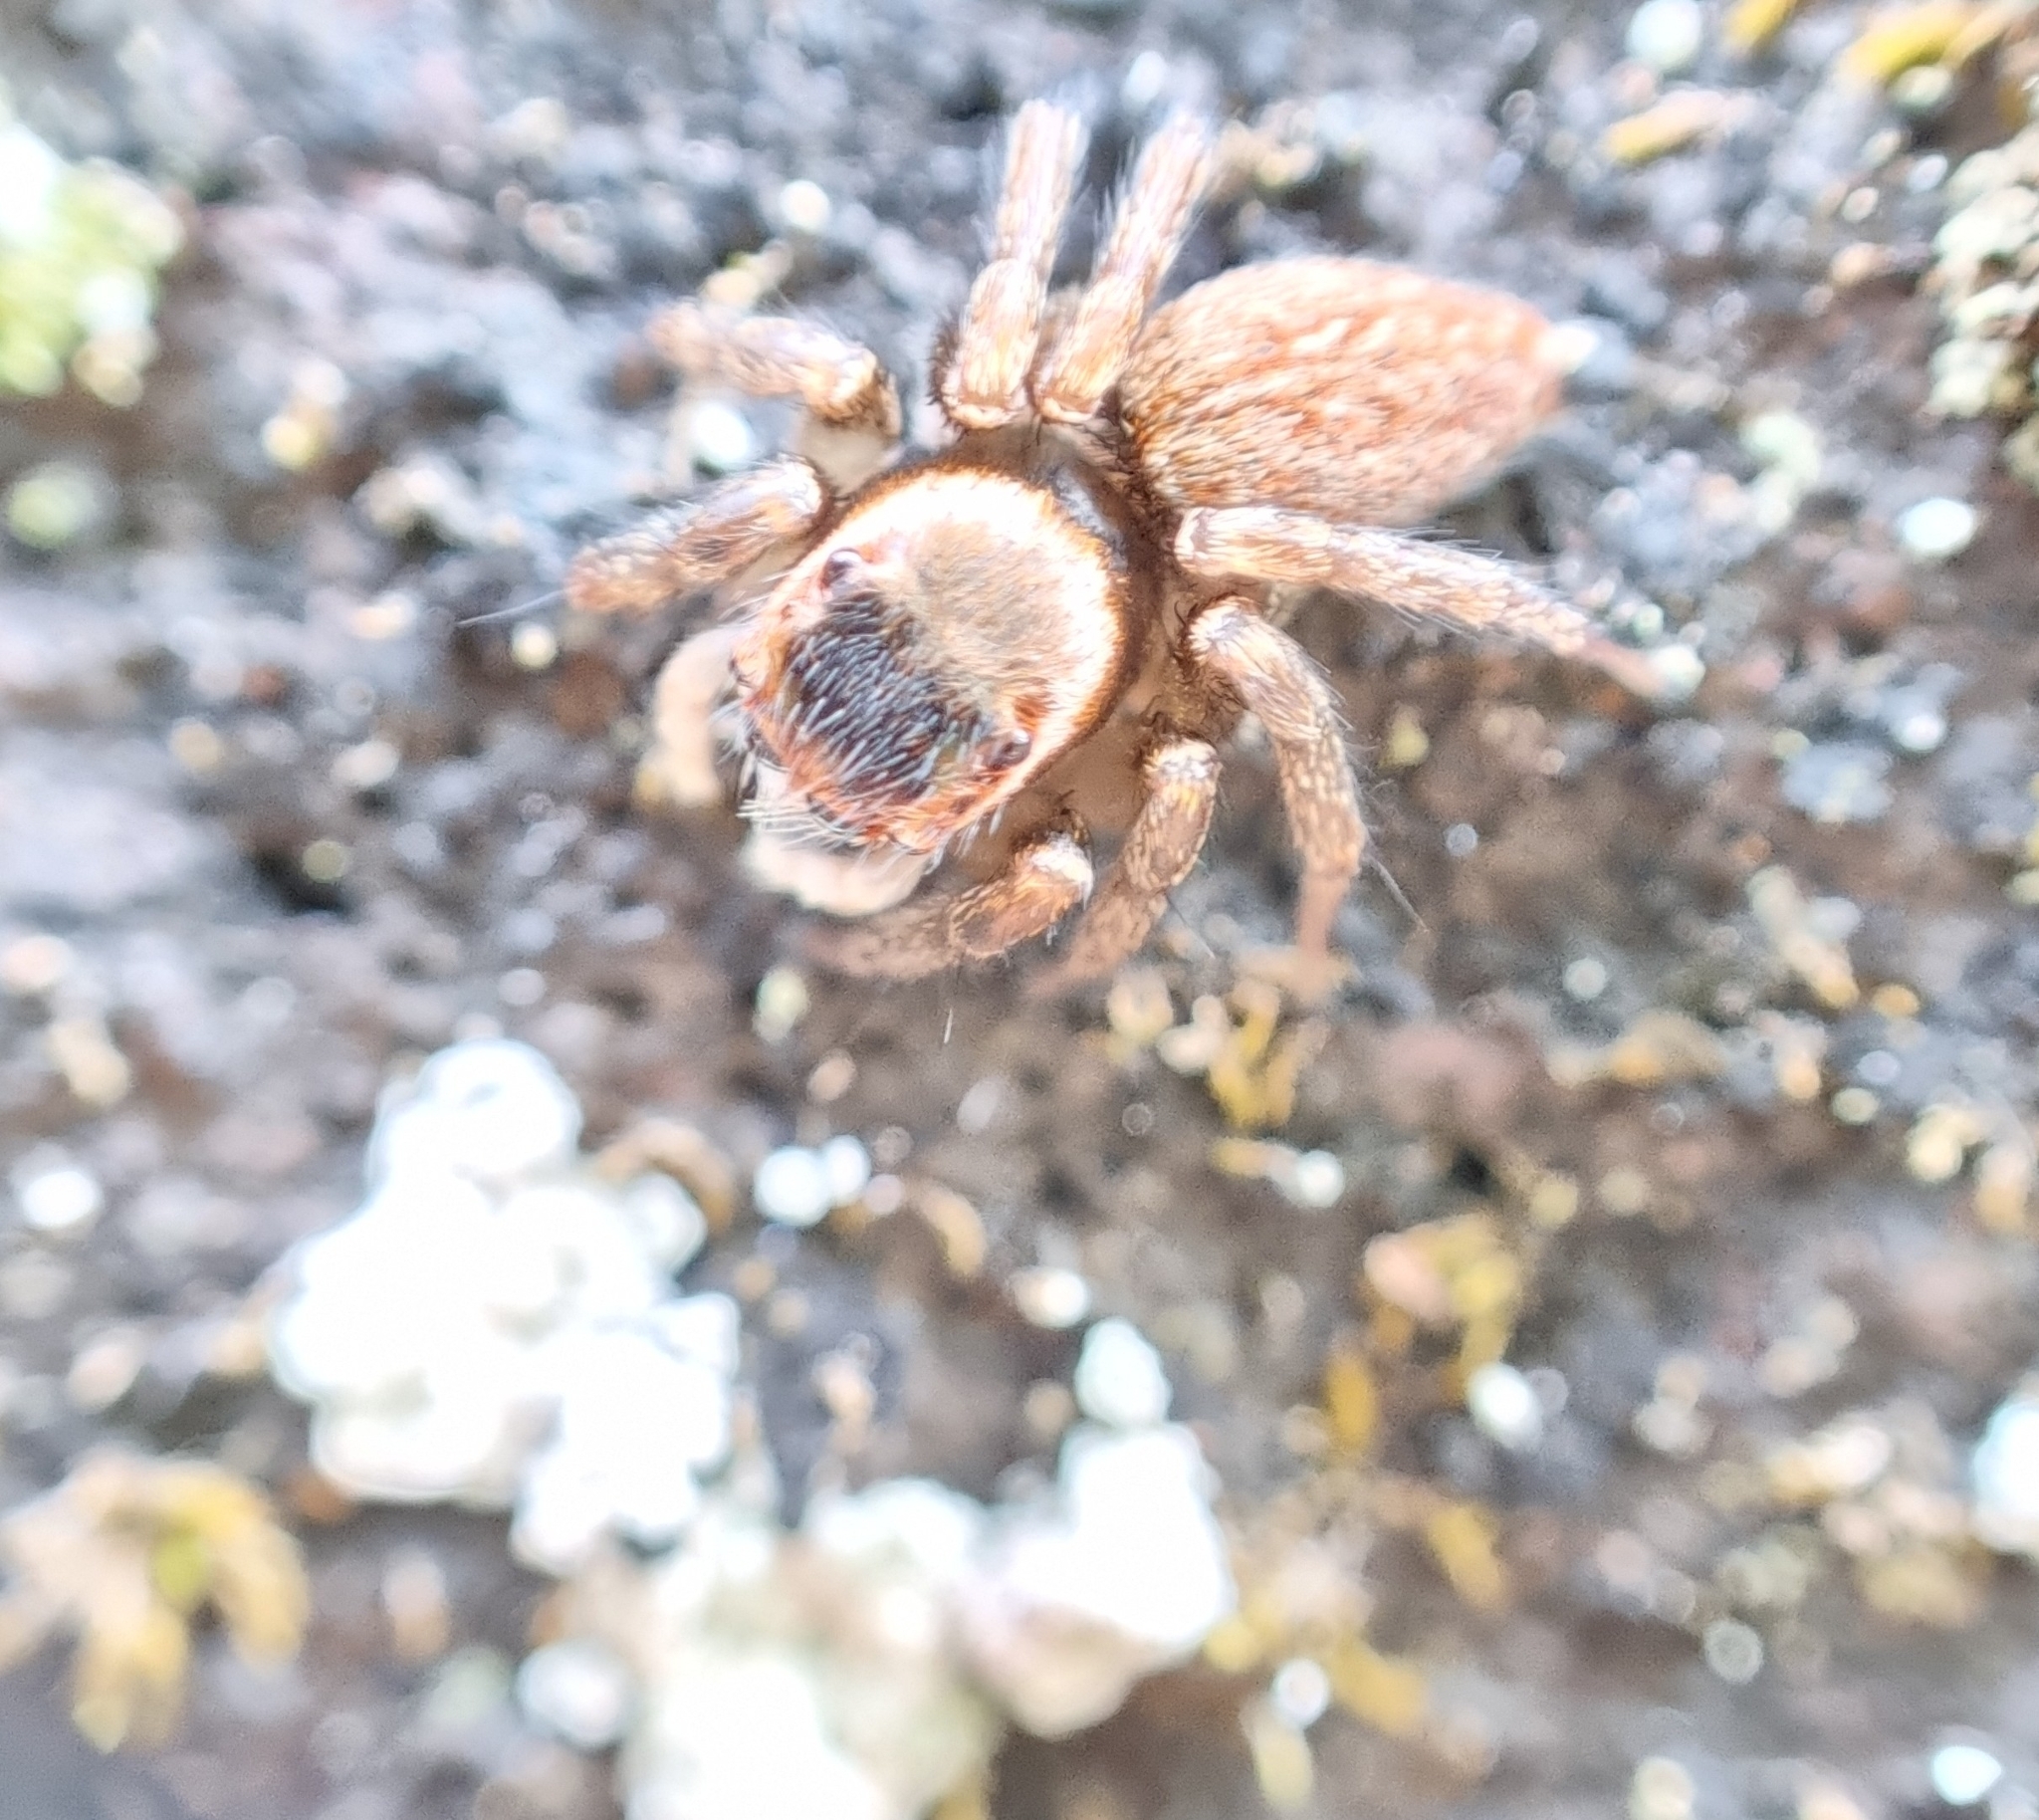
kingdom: Animalia
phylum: Arthropoda
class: Arachnida
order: Araneae
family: Salticidae
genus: Maratus
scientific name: Maratus griseus
